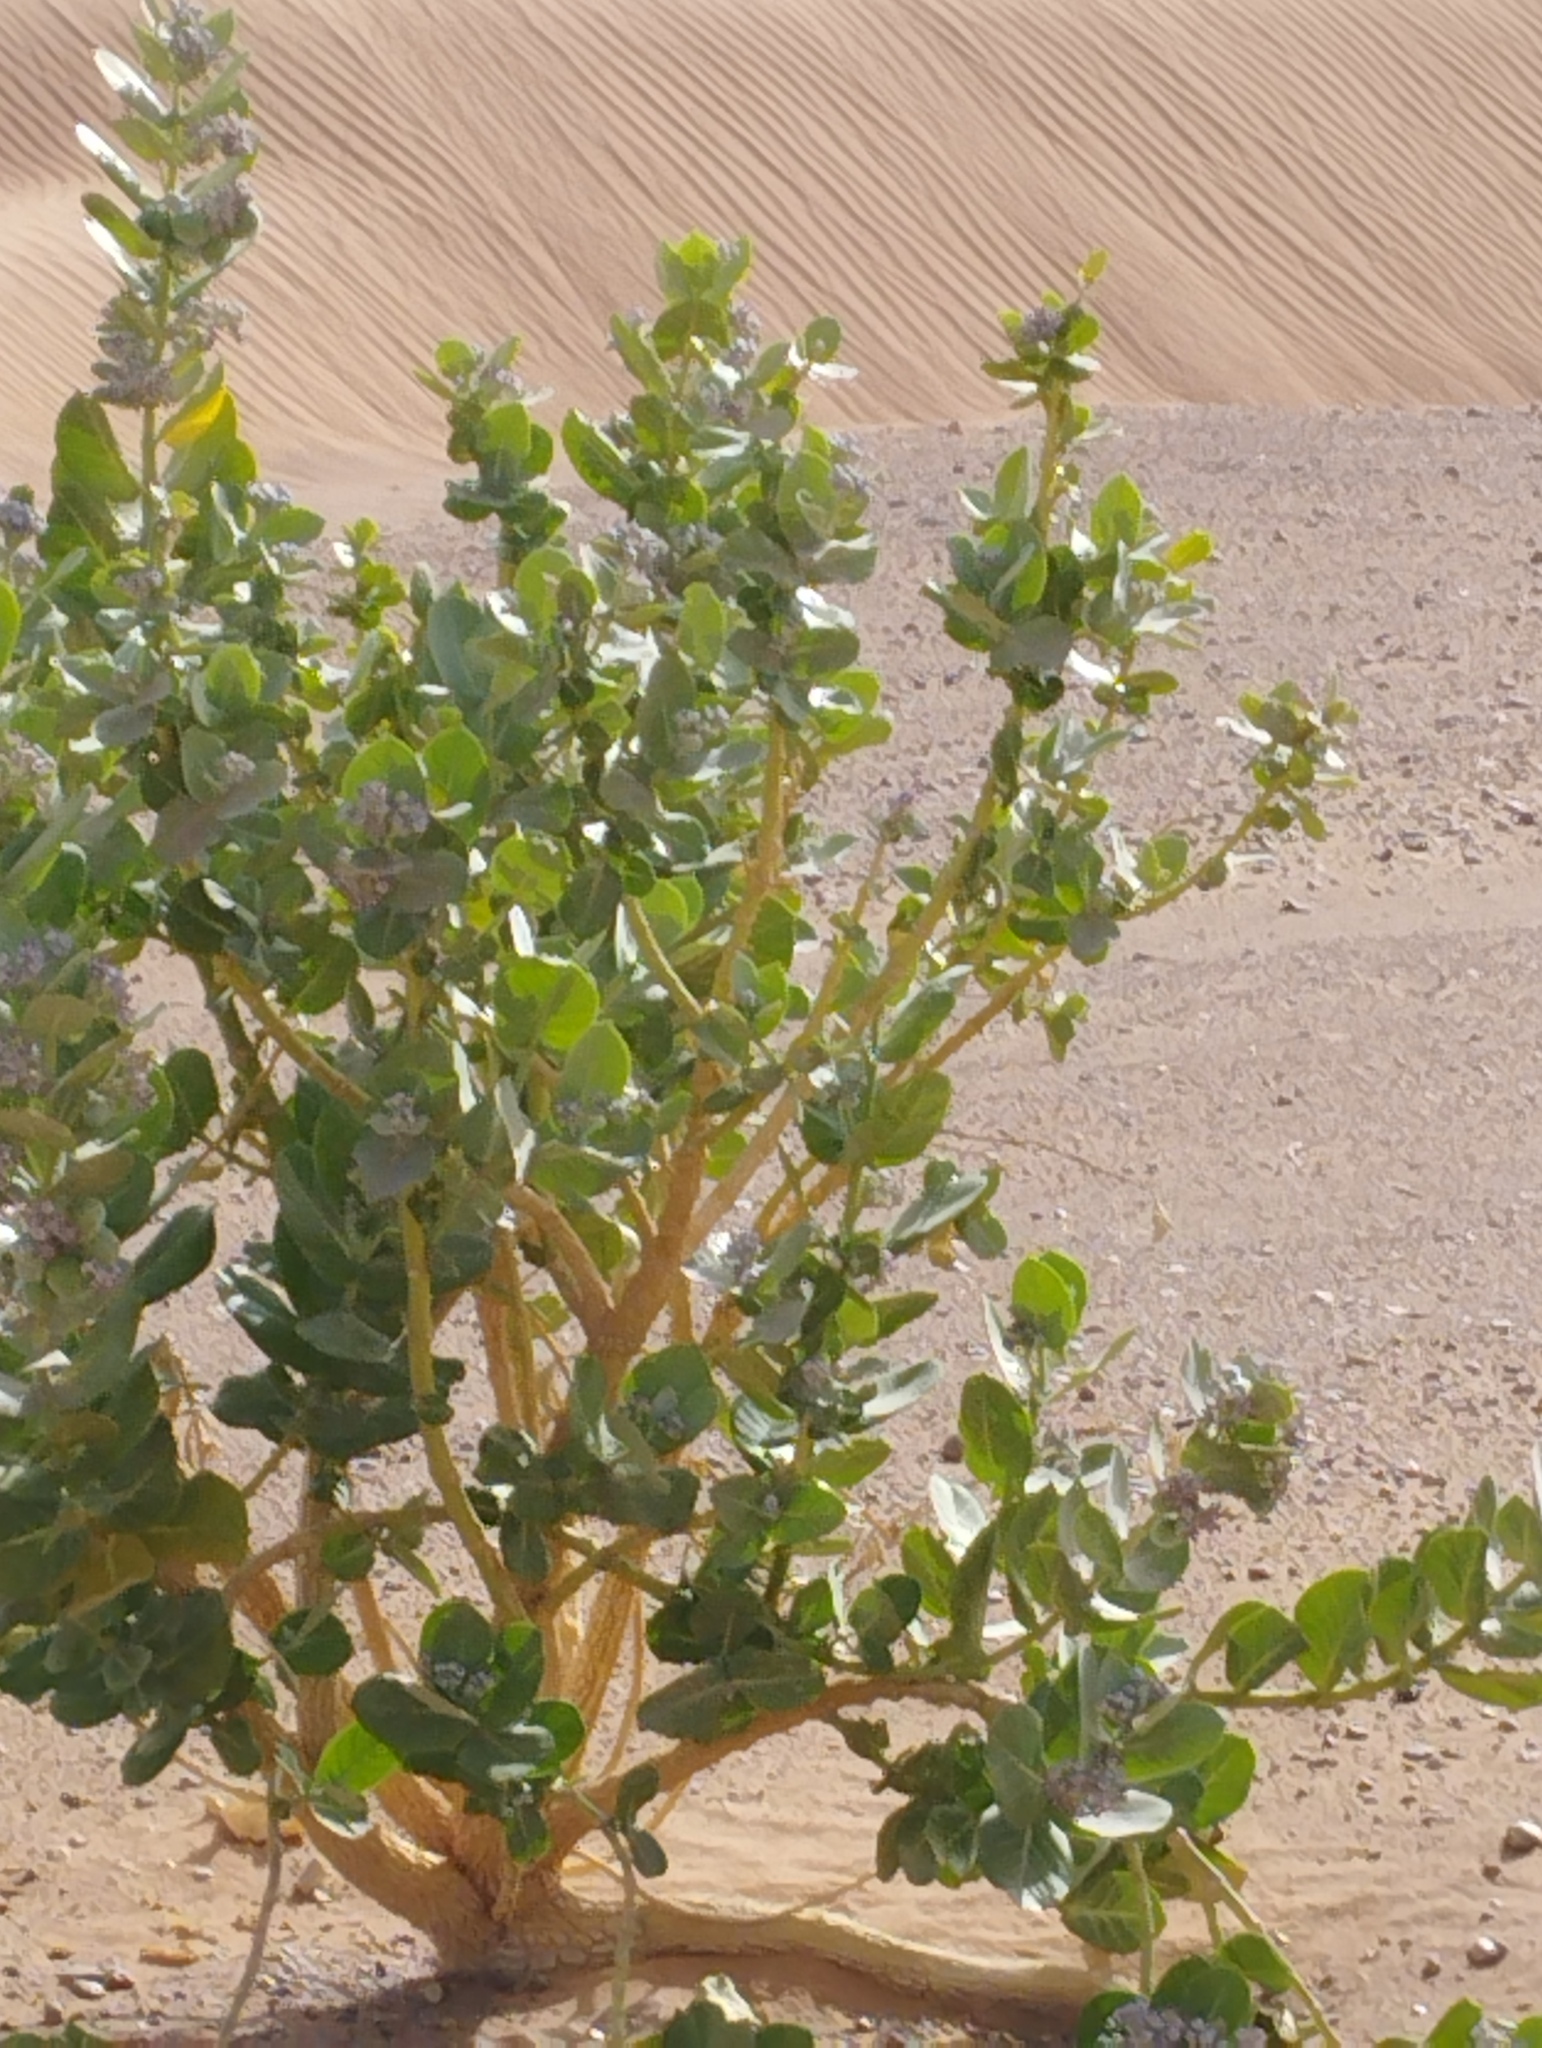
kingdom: Plantae
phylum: Tracheophyta
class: Magnoliopsida
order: Gentianales
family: Apocynaceae
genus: Calotropis
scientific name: Calotropis procera
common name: Roostertree
